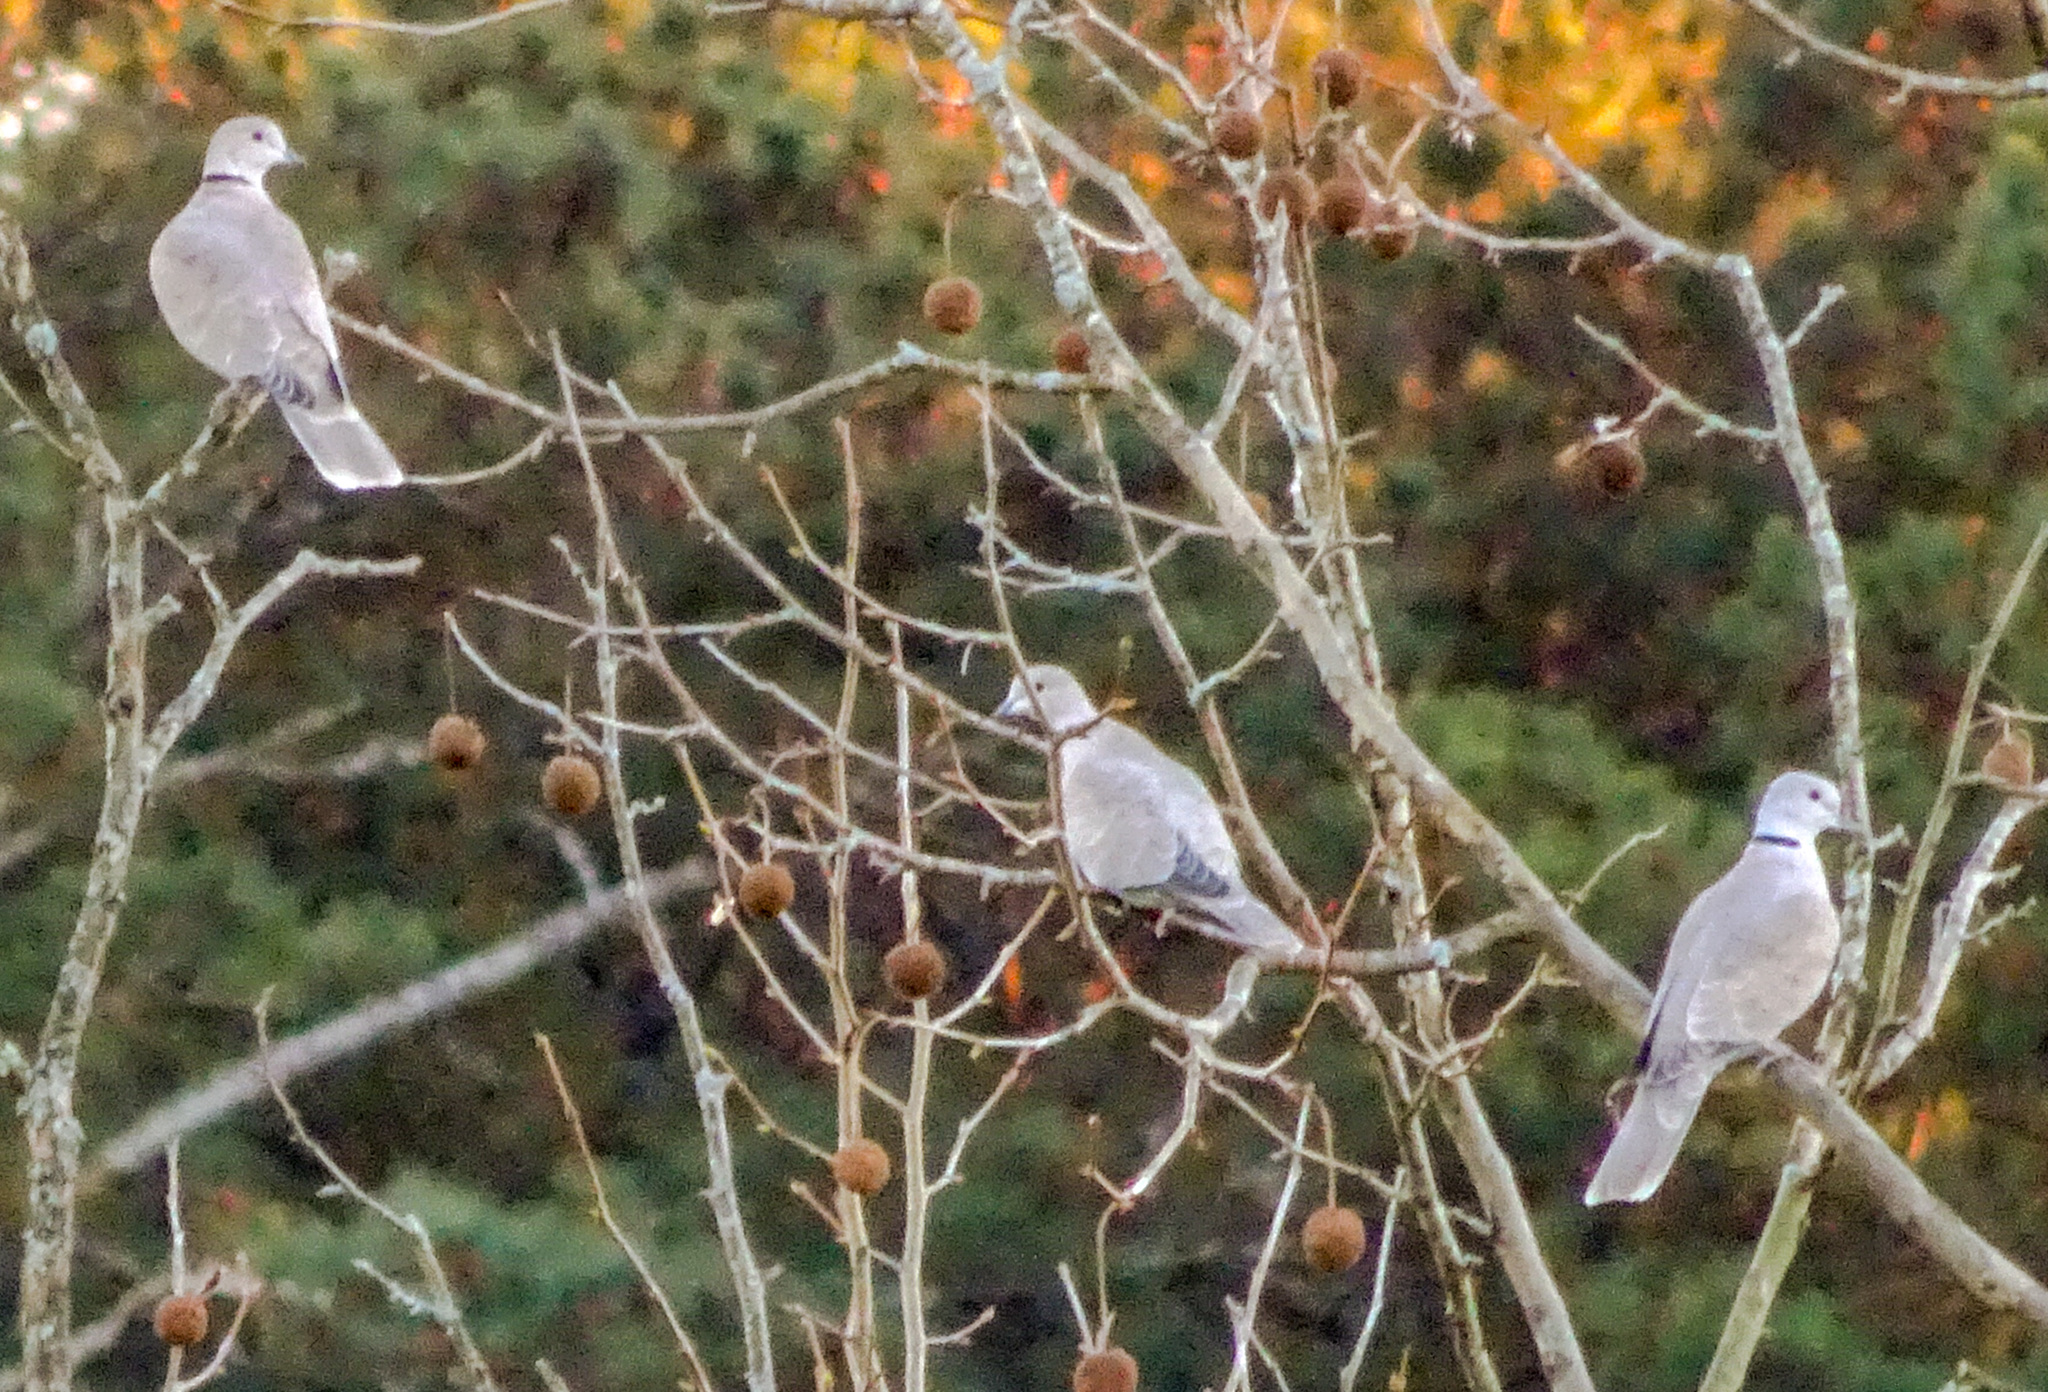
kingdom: Animalia
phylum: Chordata
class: Aves
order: Columbiformes
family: Columbidae
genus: Streptopelia
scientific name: Streptopelia decaocto
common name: Eurasian collared dove
